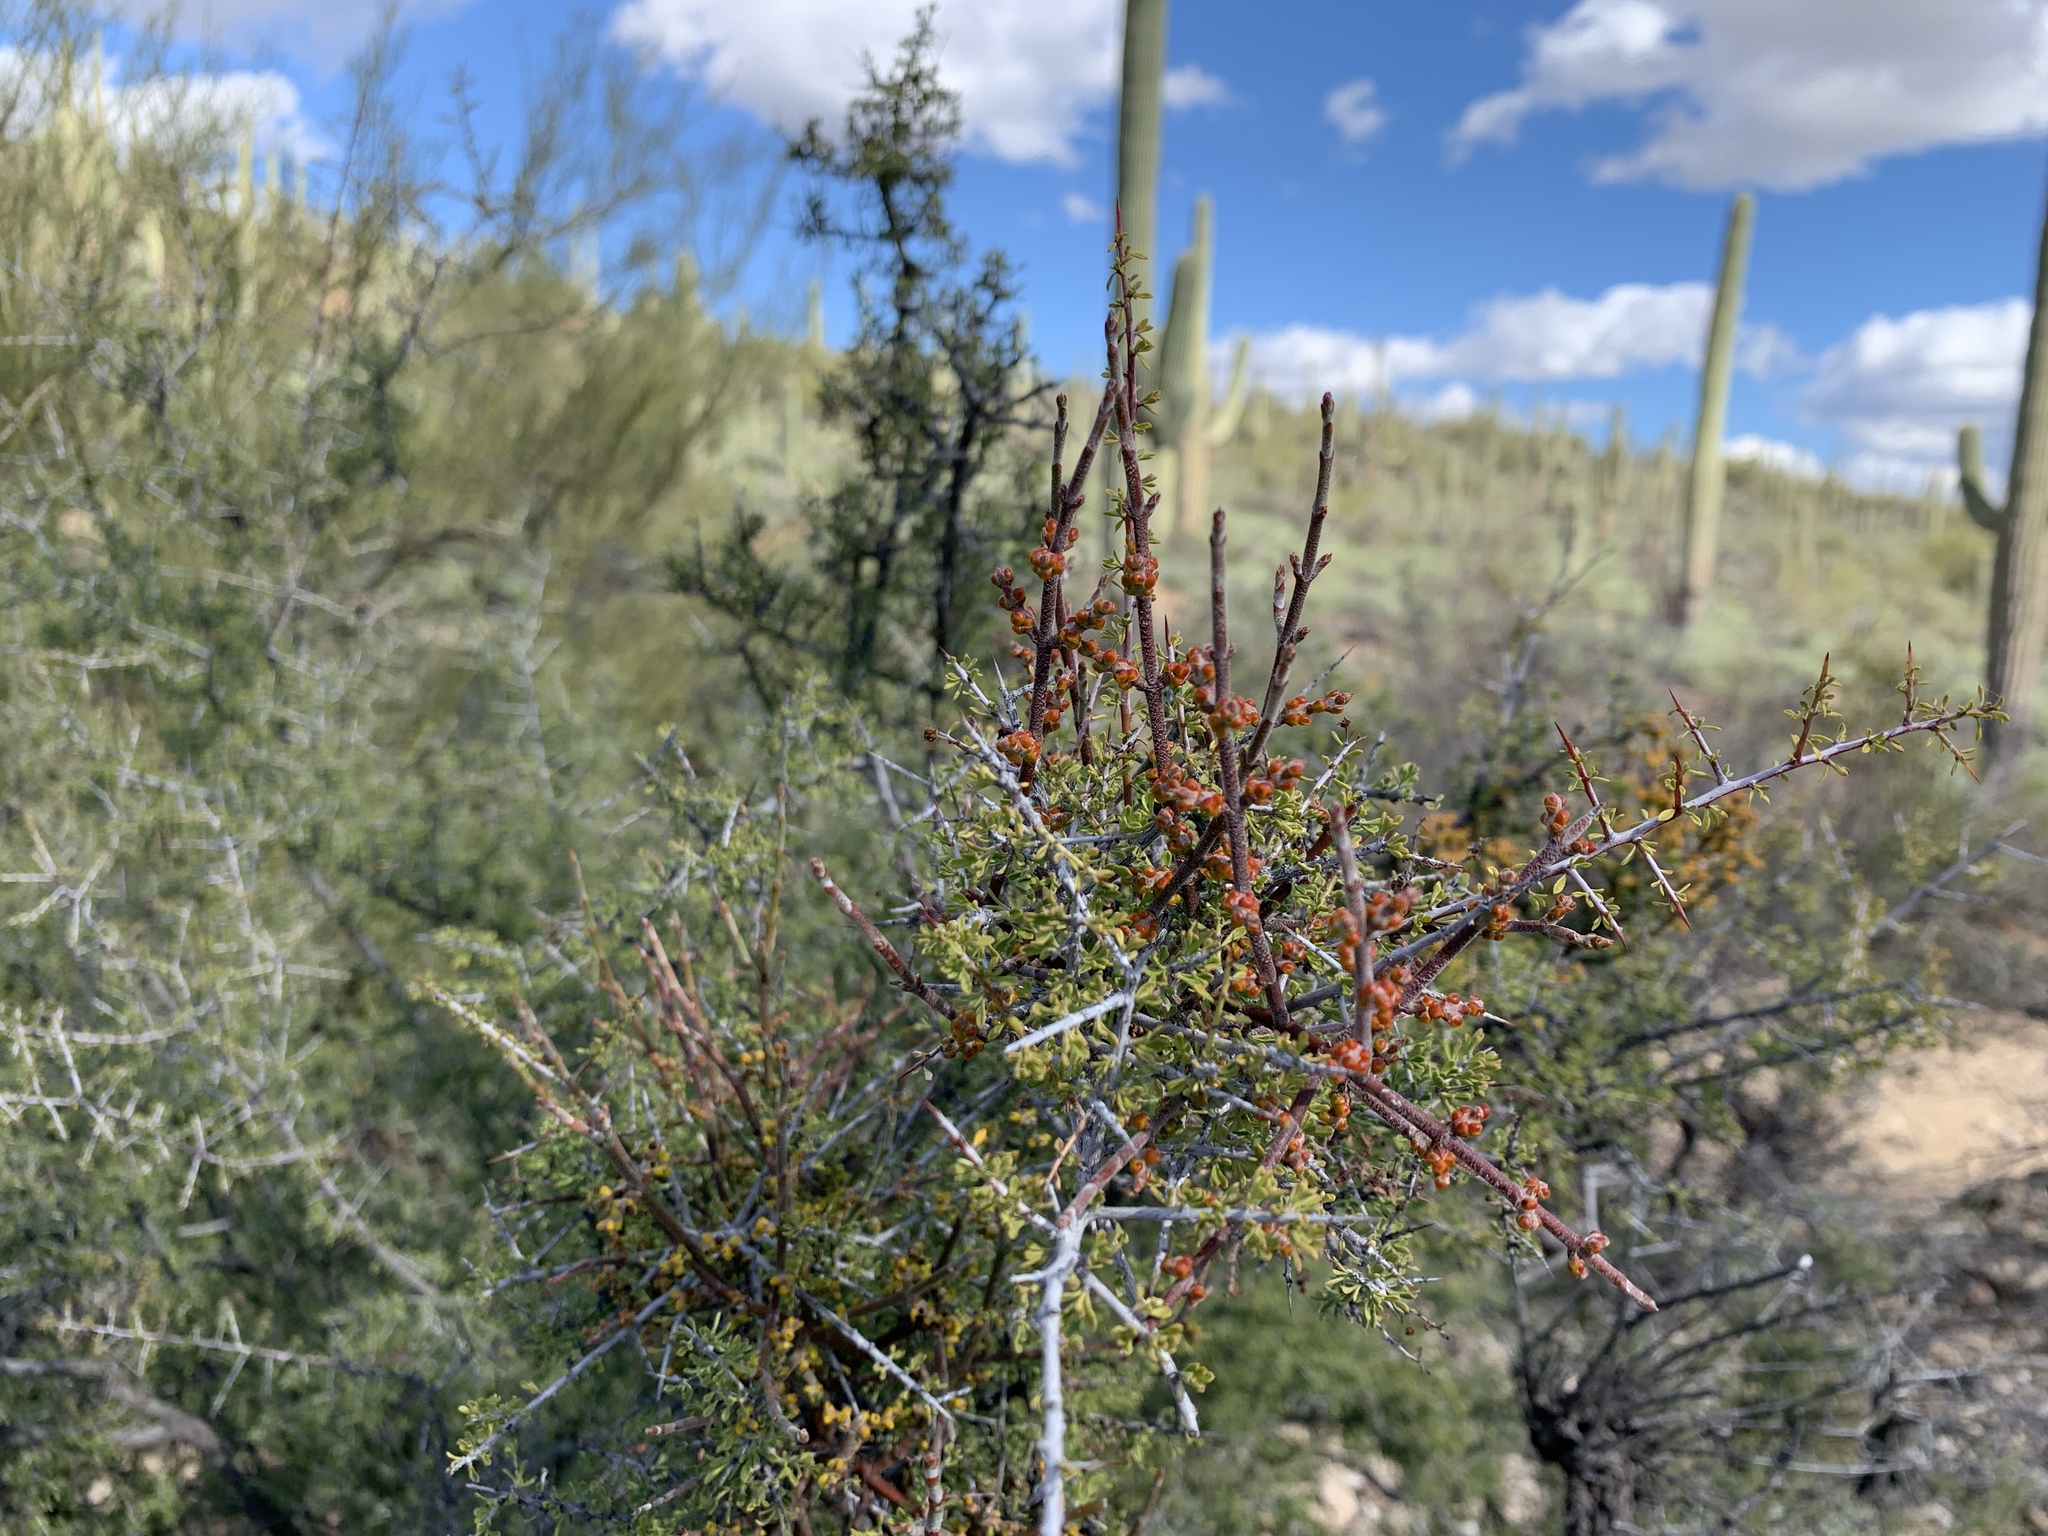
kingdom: Plantae
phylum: Tracheophyta
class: Magnoliopsida
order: Santalales
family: Viscaceae
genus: Phoradendron
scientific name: Phoradendron californicum
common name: Acacia mistletoe
